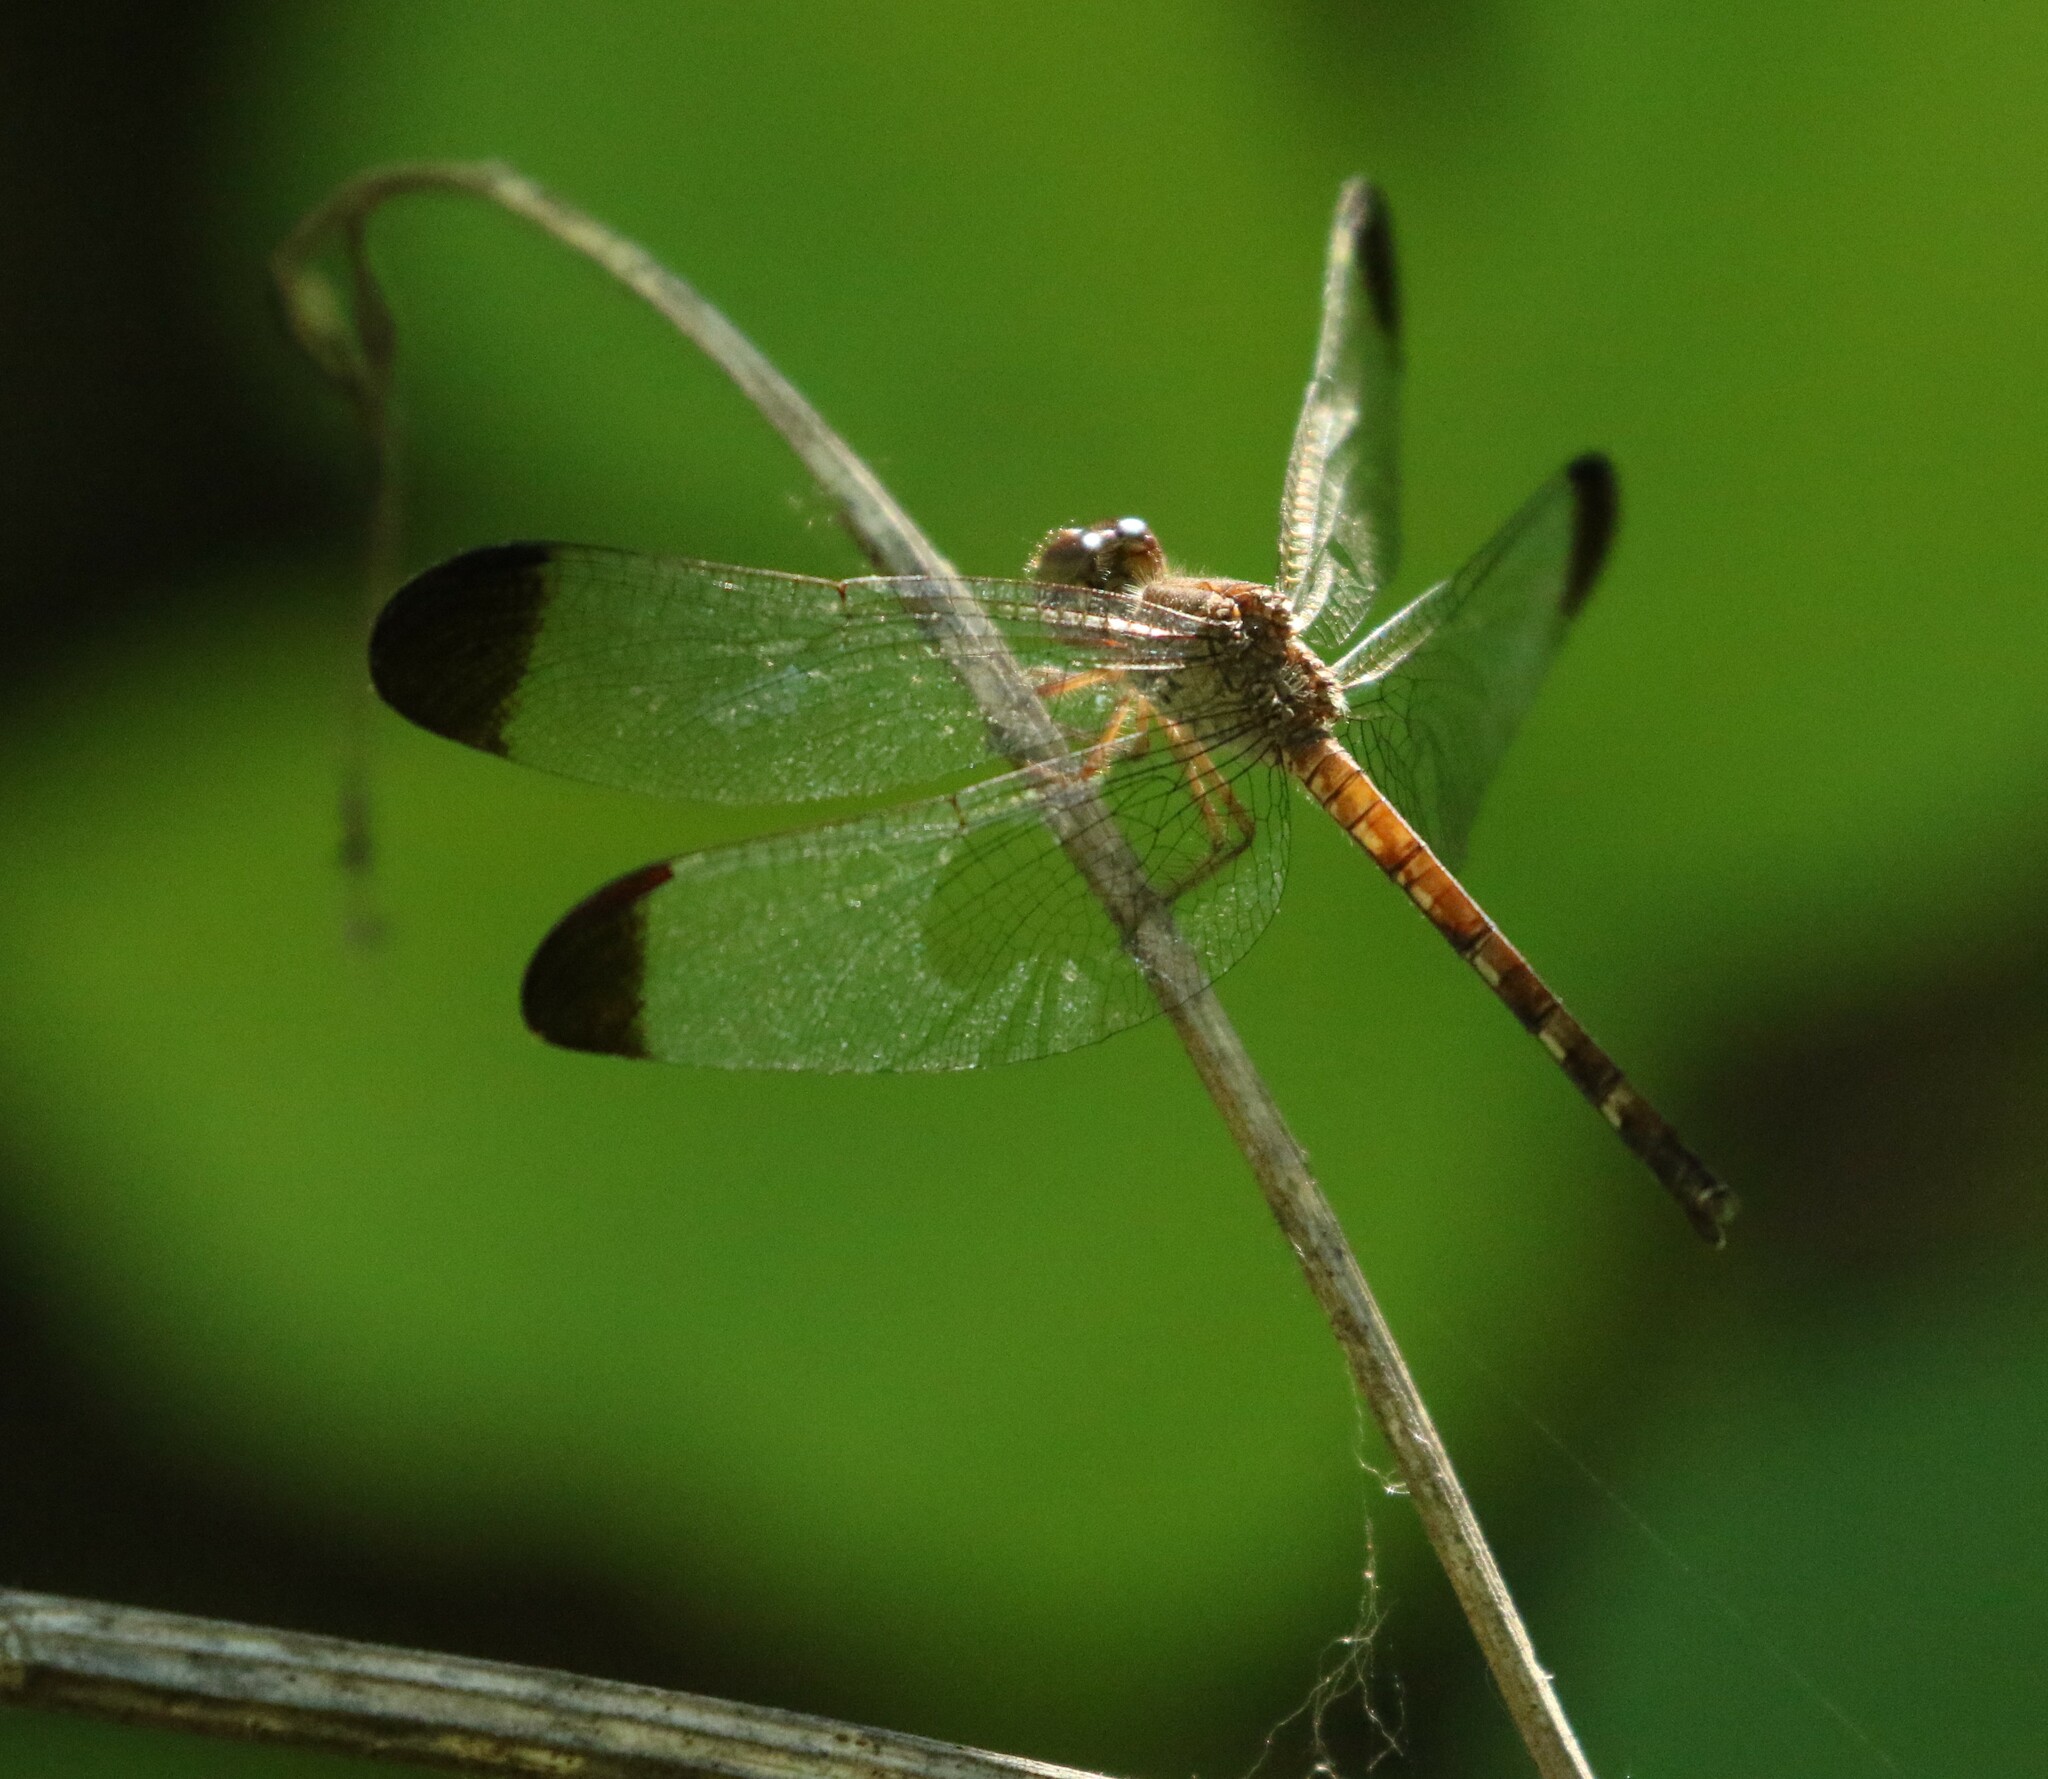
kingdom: Animalia
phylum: Arthropoda
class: Insecta
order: Odonata
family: Libellulidae
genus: Uracis
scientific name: Uracis imbuta
